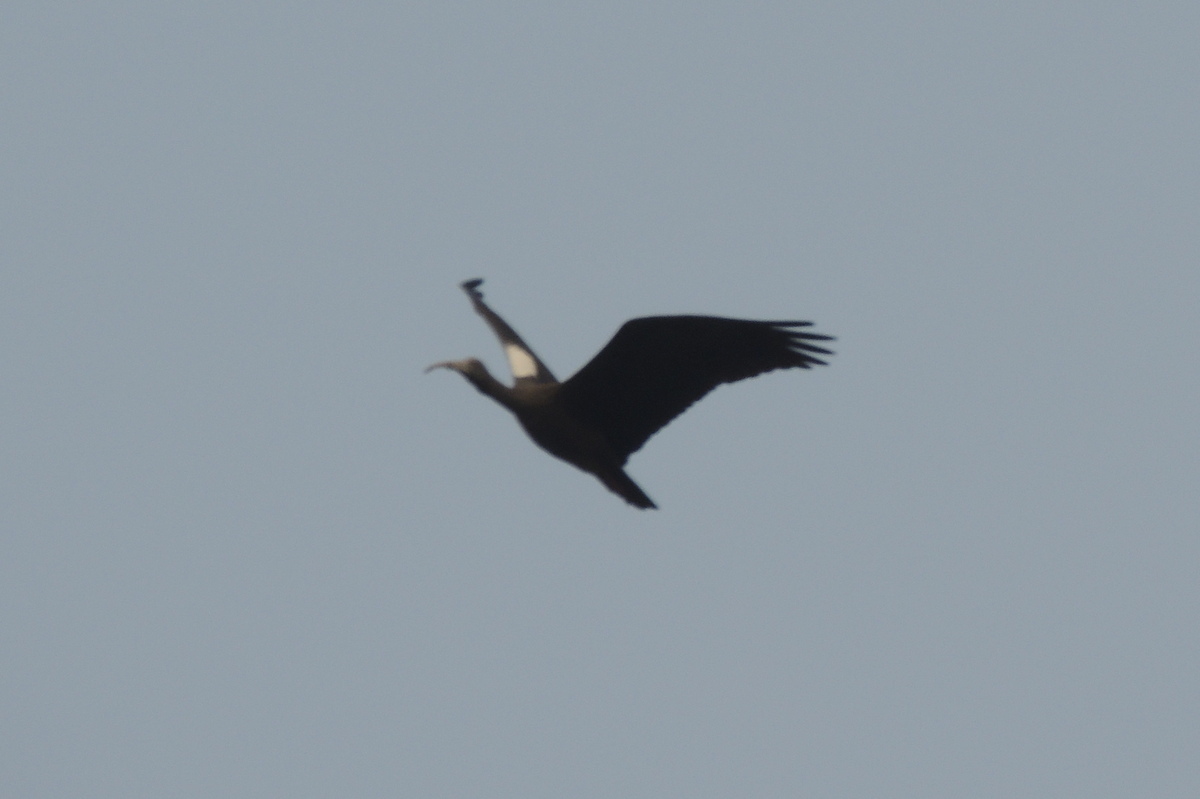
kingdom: Animalia
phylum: Chordata
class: Aves
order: Pelecaniformes
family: Threskiornithidae
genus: Pseudibis
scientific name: Pseudibis papillosa
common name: Red-naped ibis
